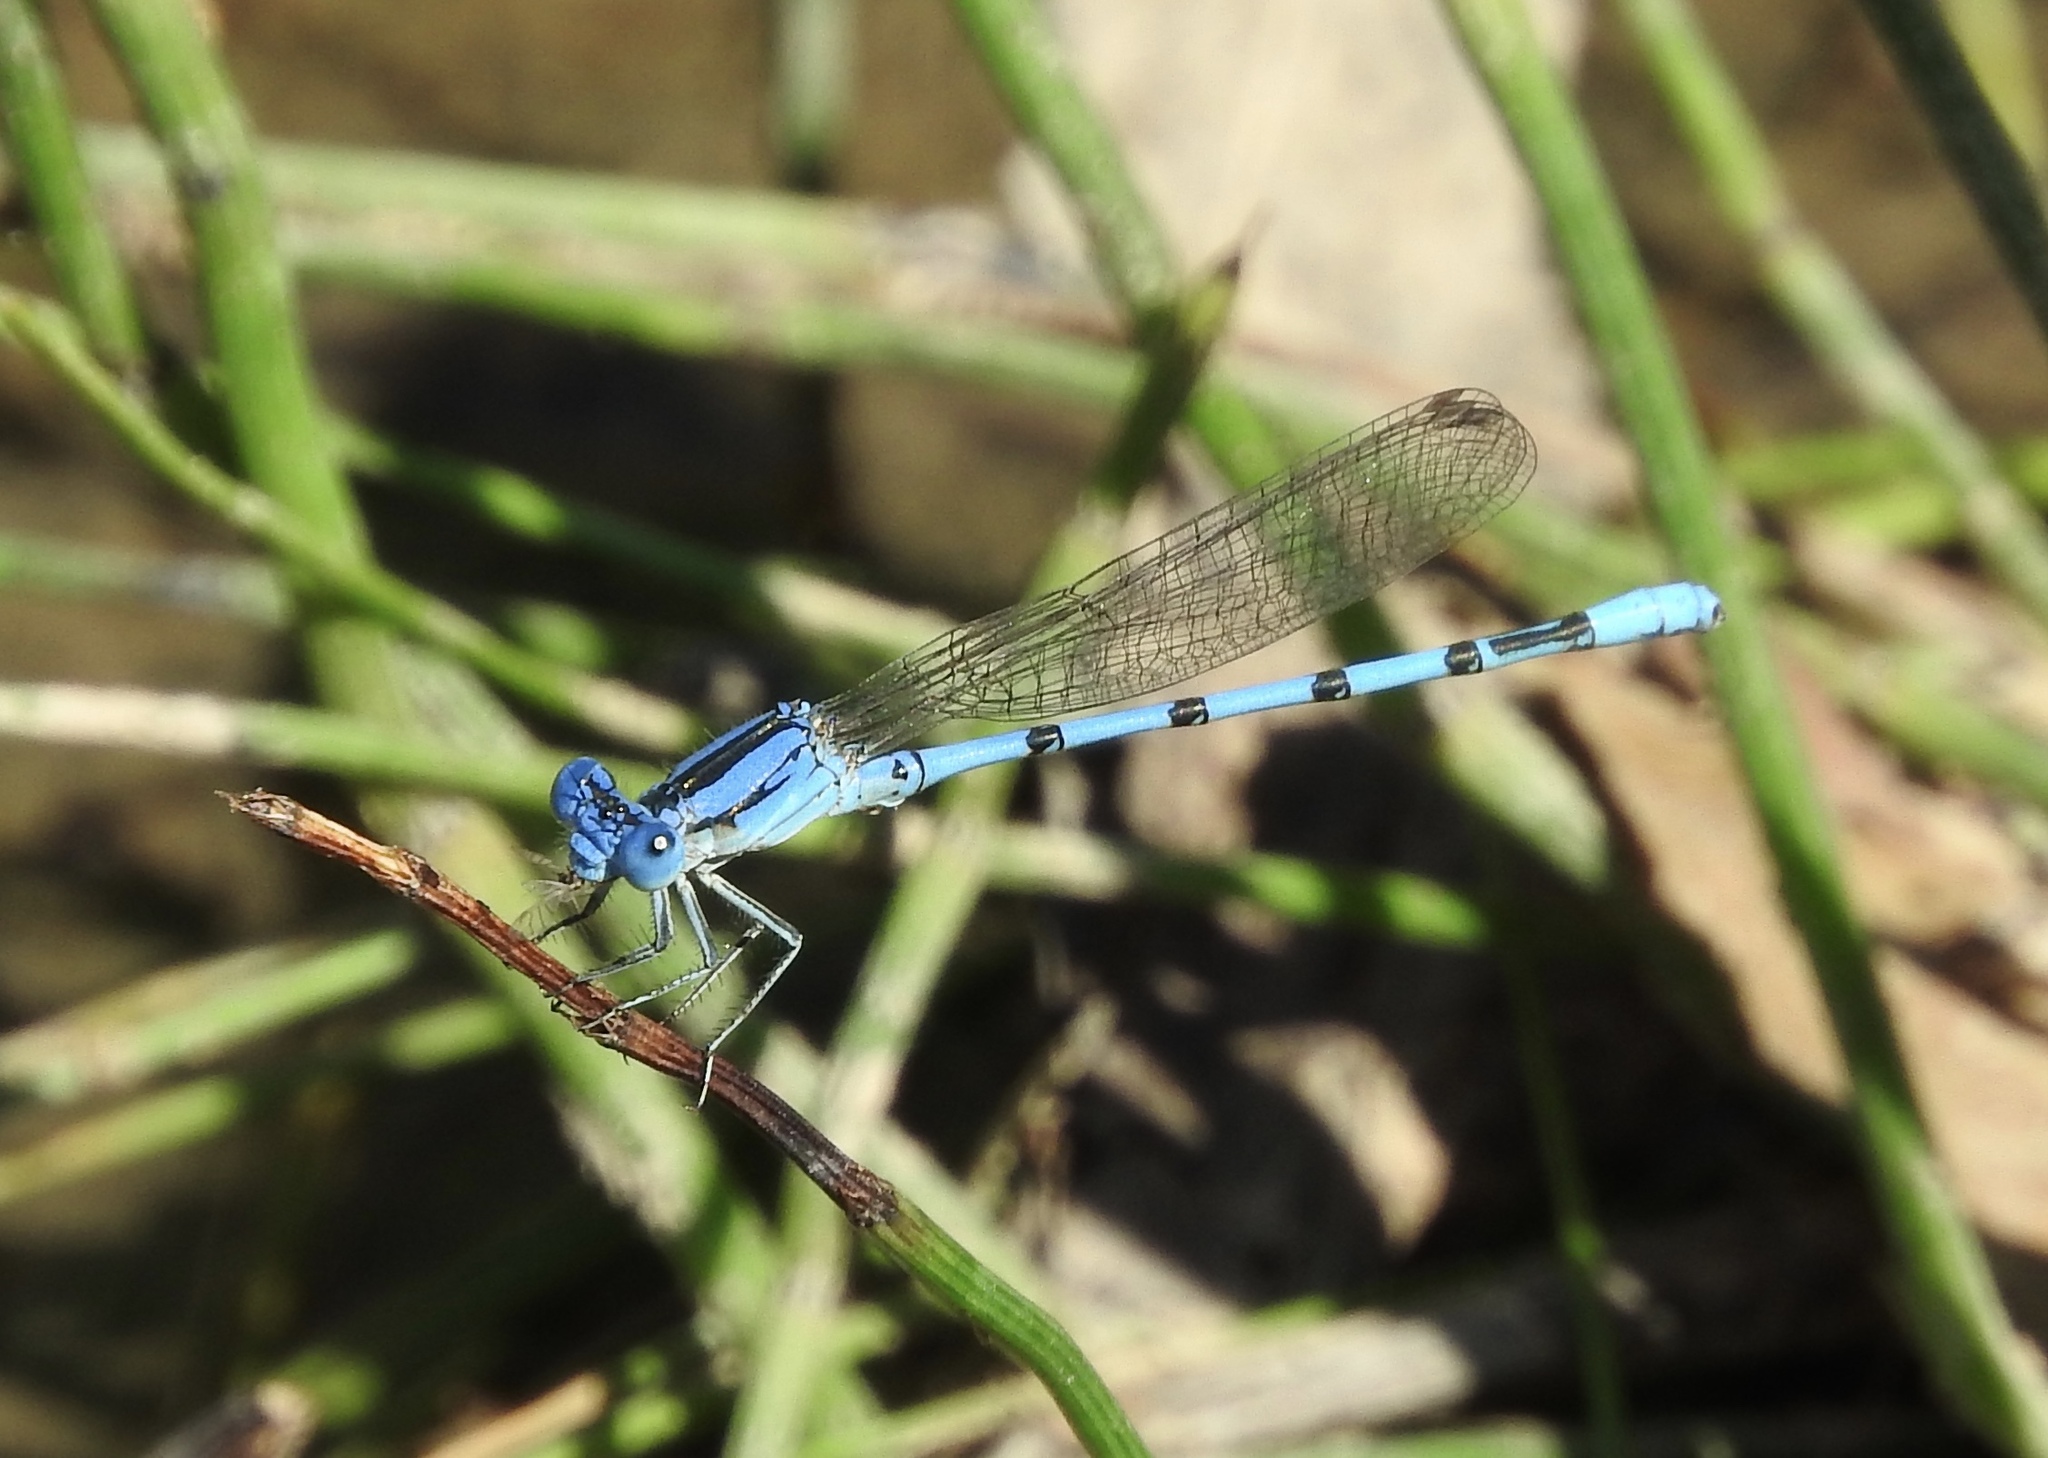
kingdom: Animalia
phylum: Arthropoda
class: Insecta
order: Odonata
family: Coenagrionidae
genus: Argia
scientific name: Argia nahuana
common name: Aztec dancer
